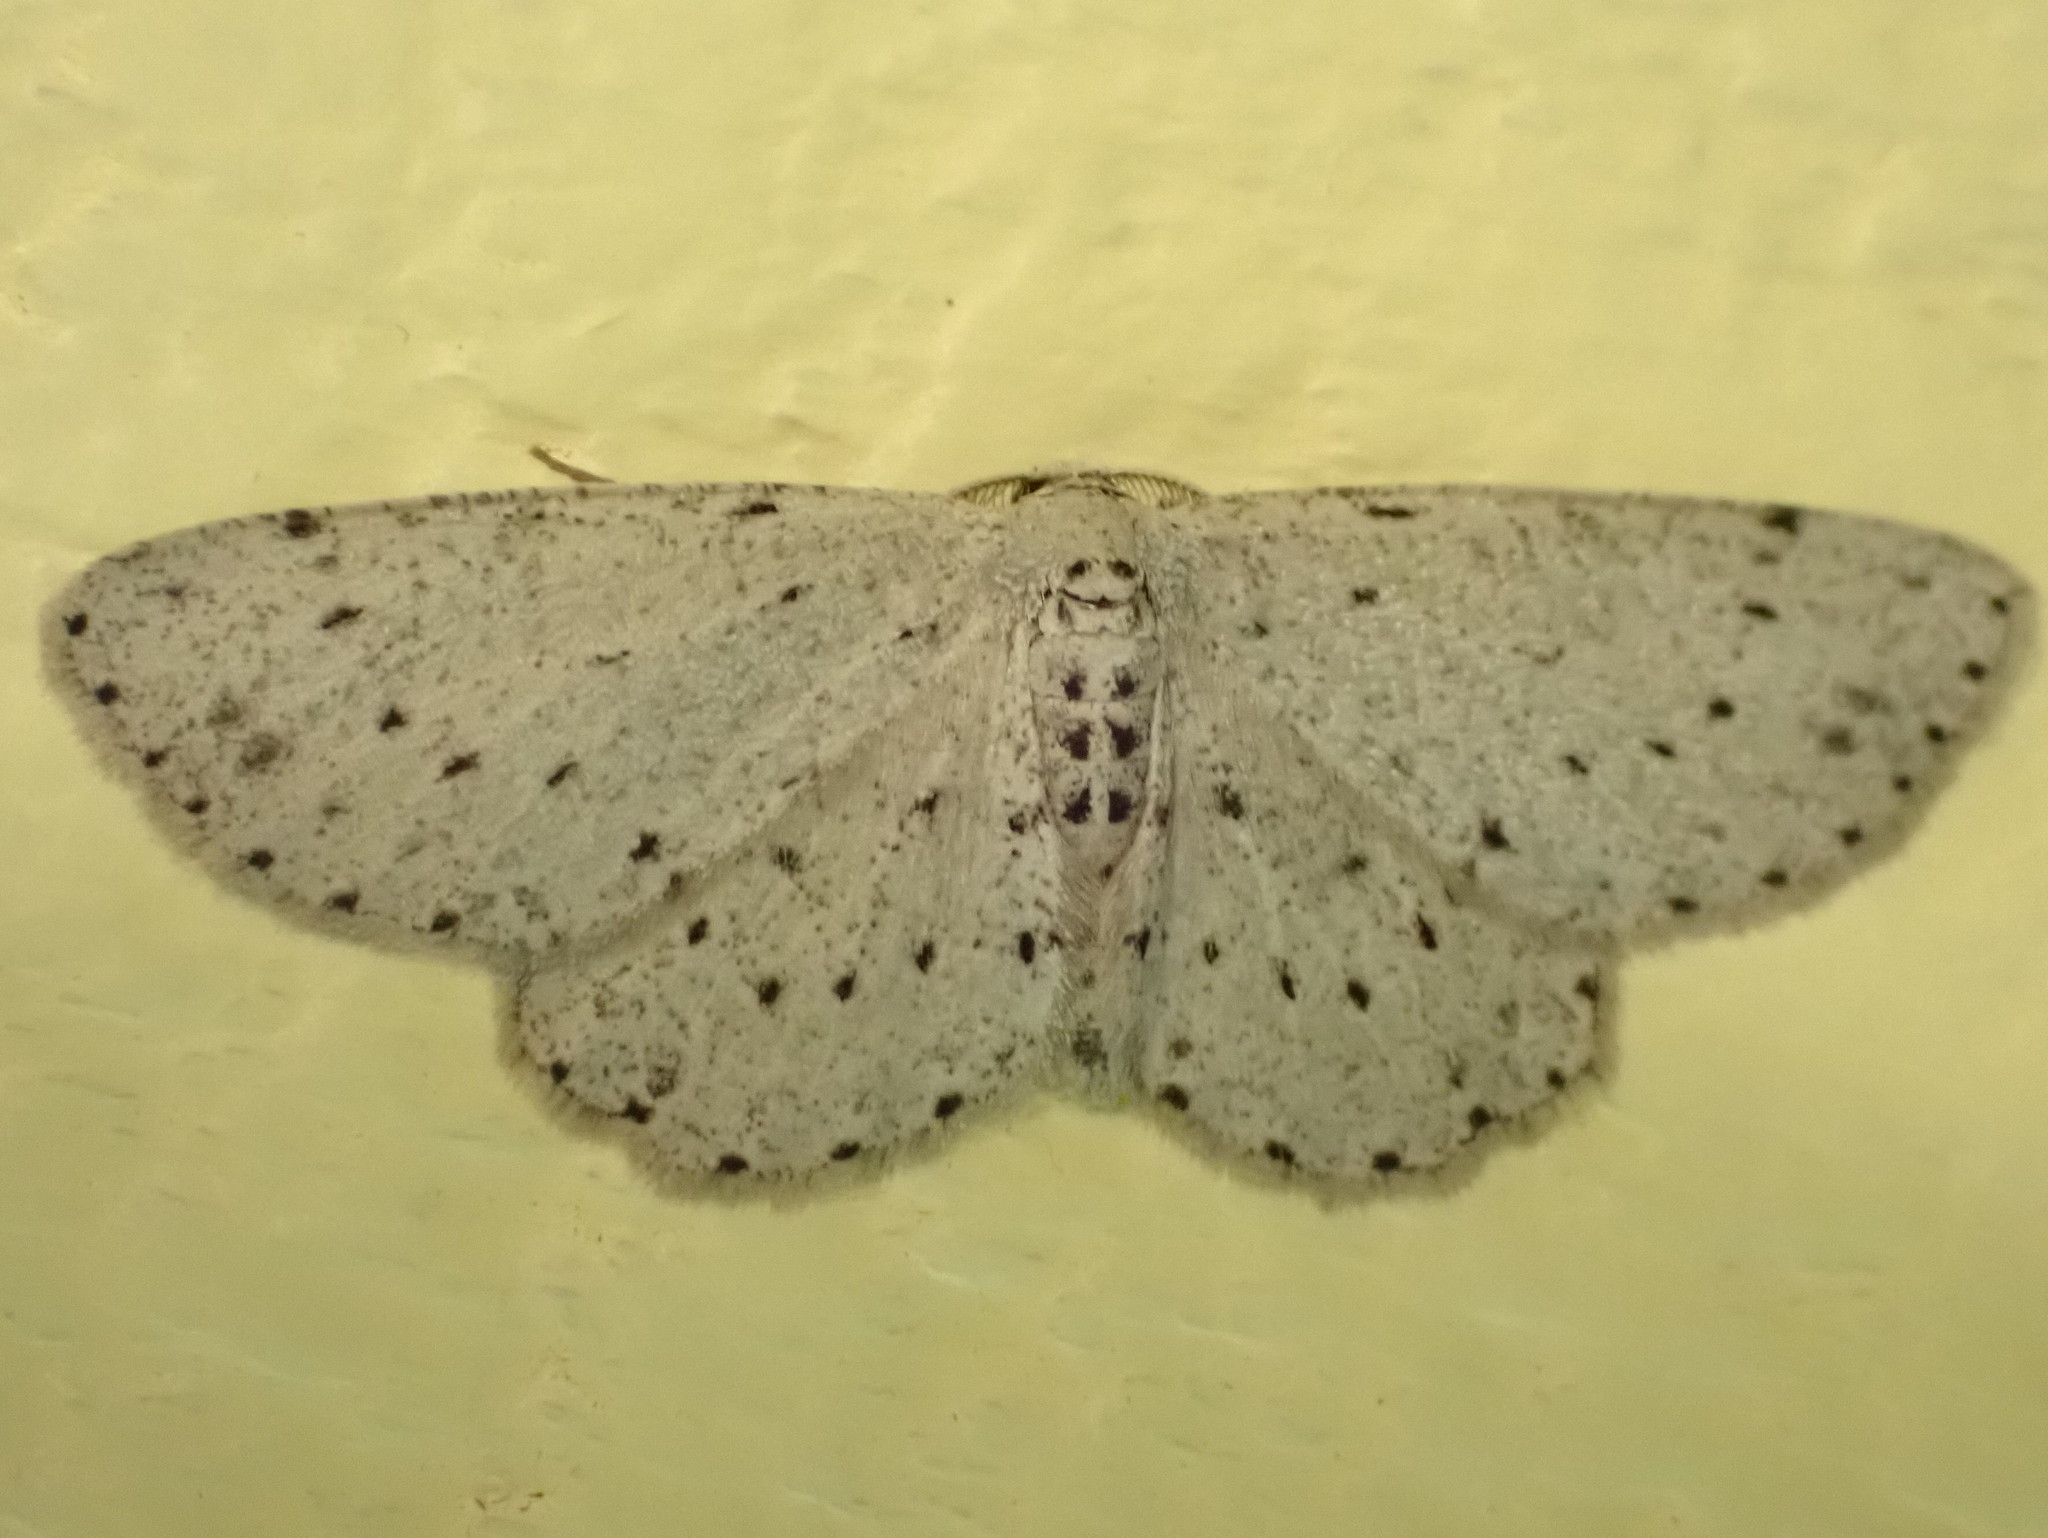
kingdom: Animalia
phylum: Arthropoda
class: Insecta
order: Lepidoptera
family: Geometridae
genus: Glena
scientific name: Glena cribrataria
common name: Dotted gray
